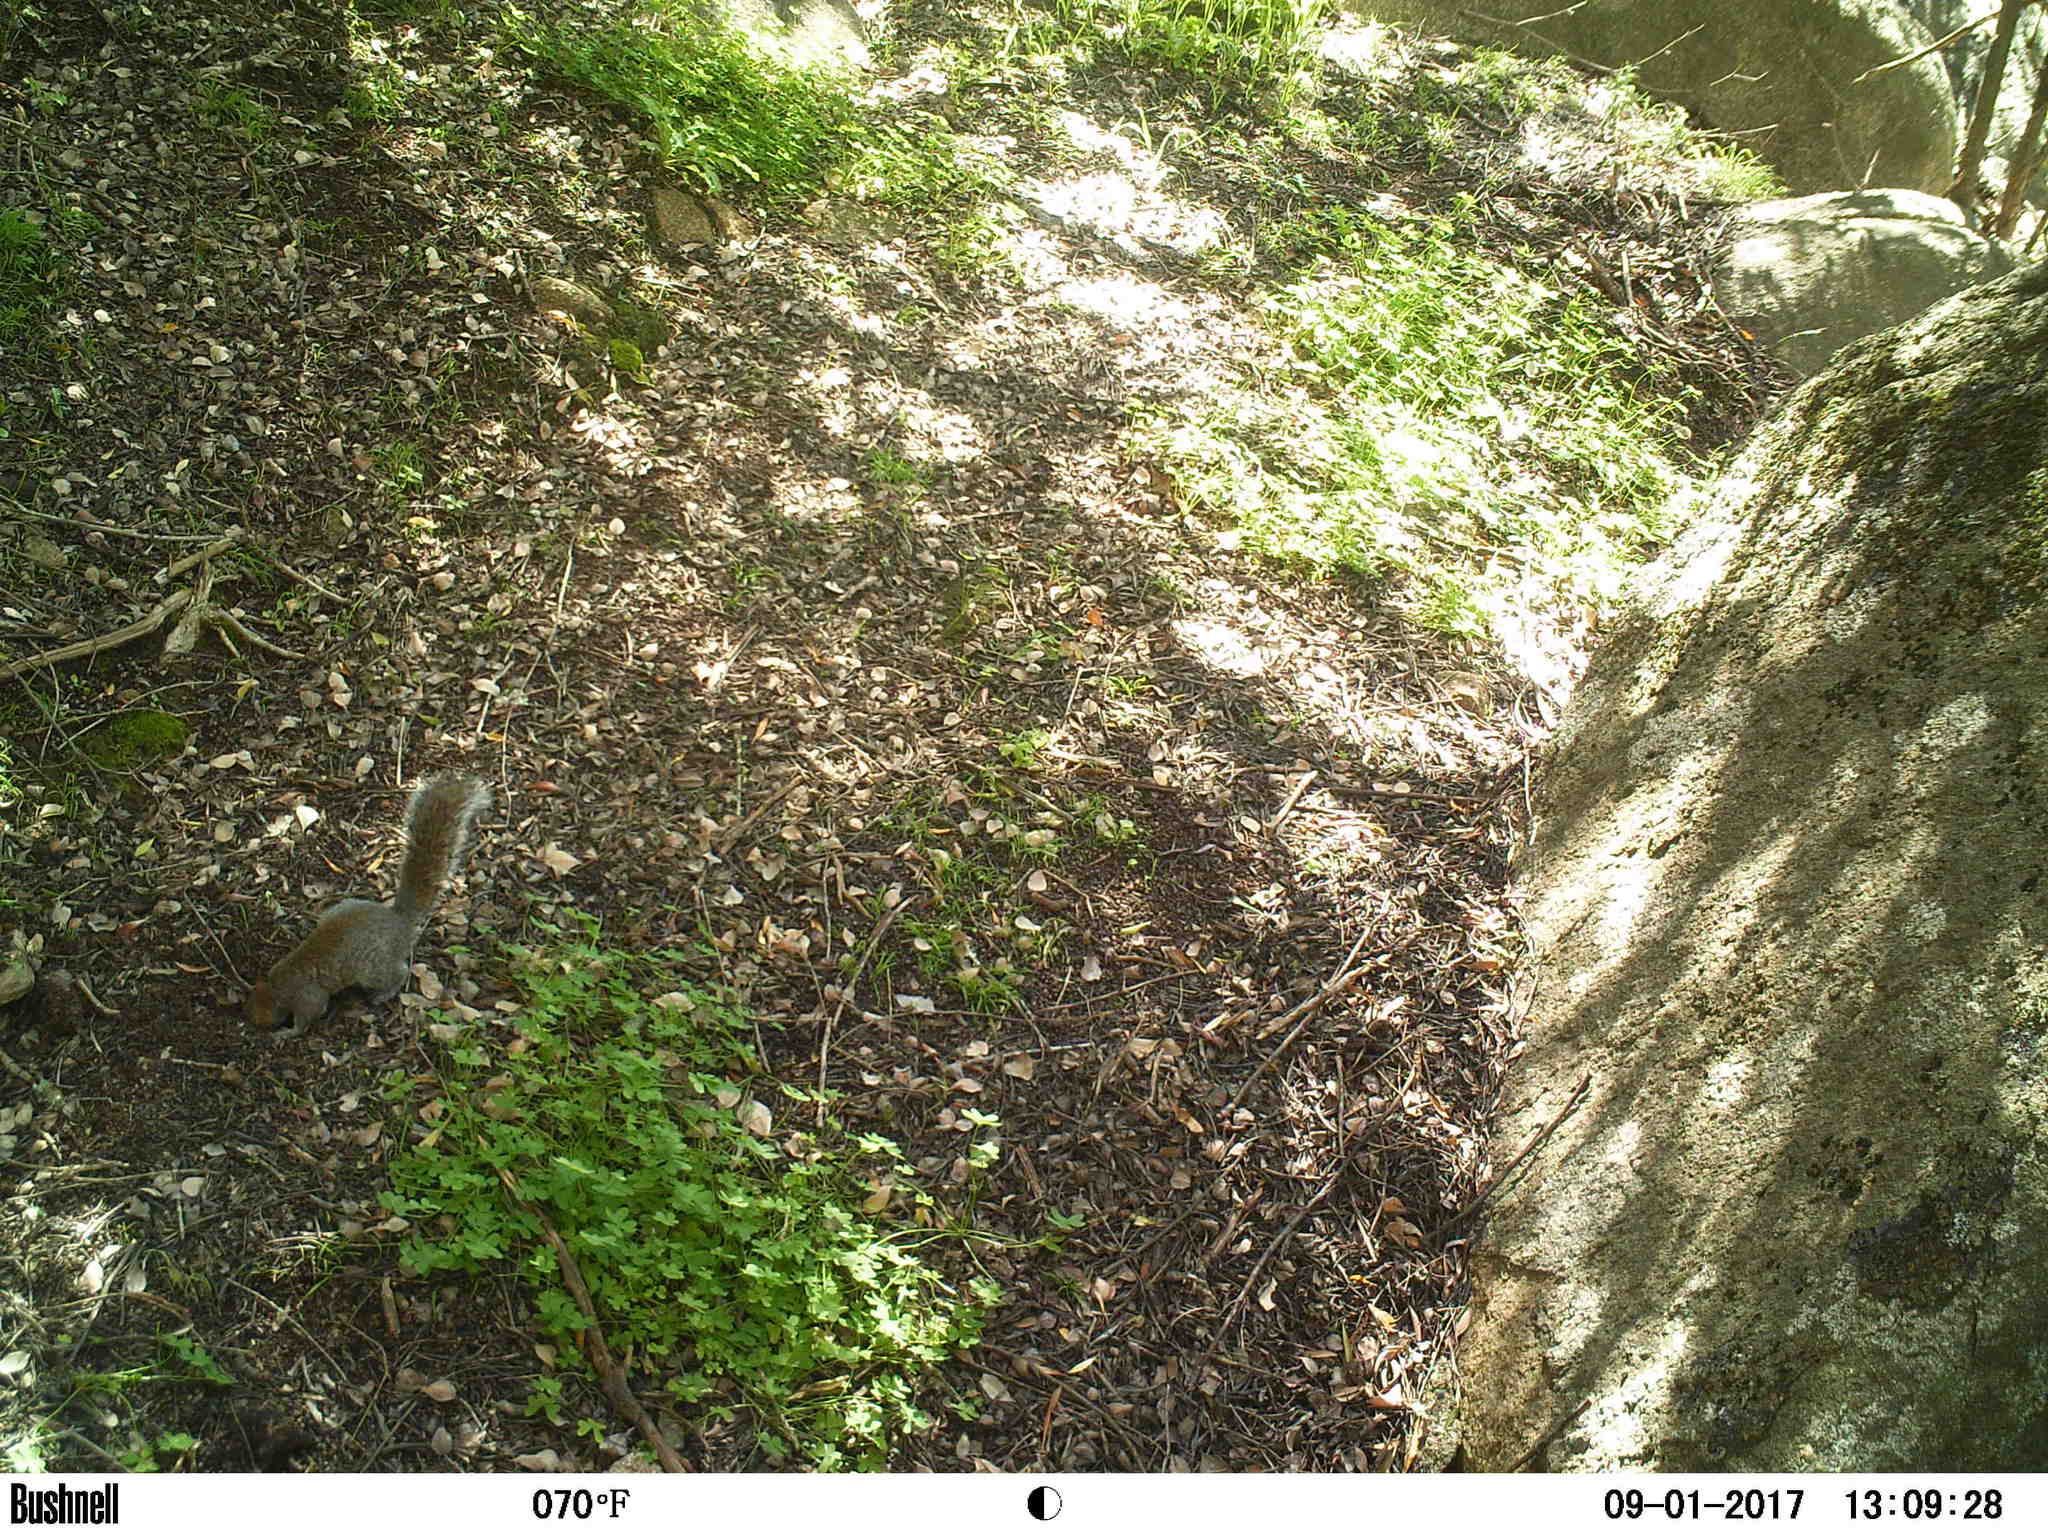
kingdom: Animalia
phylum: Chordata
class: Mammalia
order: Rodentia
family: Sciuridae
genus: Sciurus
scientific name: Sciurus carolinensis
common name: Eastern gray squirrel
